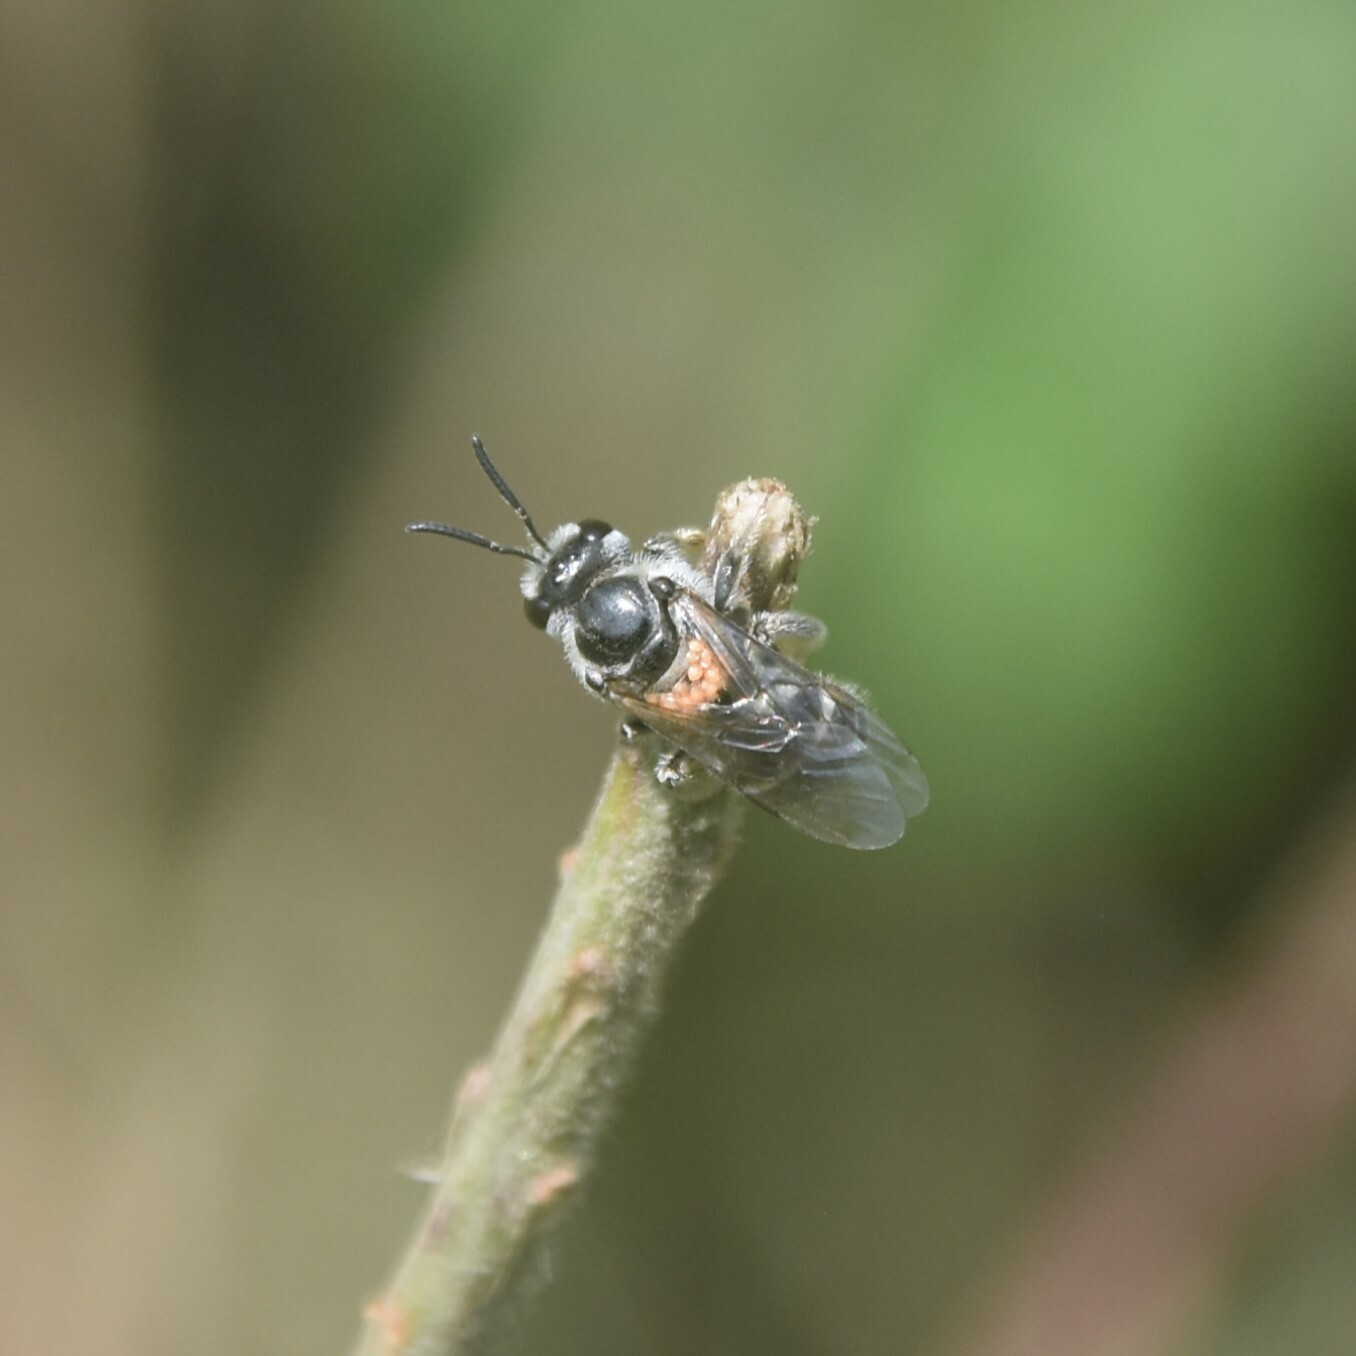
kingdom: Animalia
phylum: Arthropoda
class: Insecta
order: Hymenoptera
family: Halictidae
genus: Lasioglossum
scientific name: Lasioglossum
